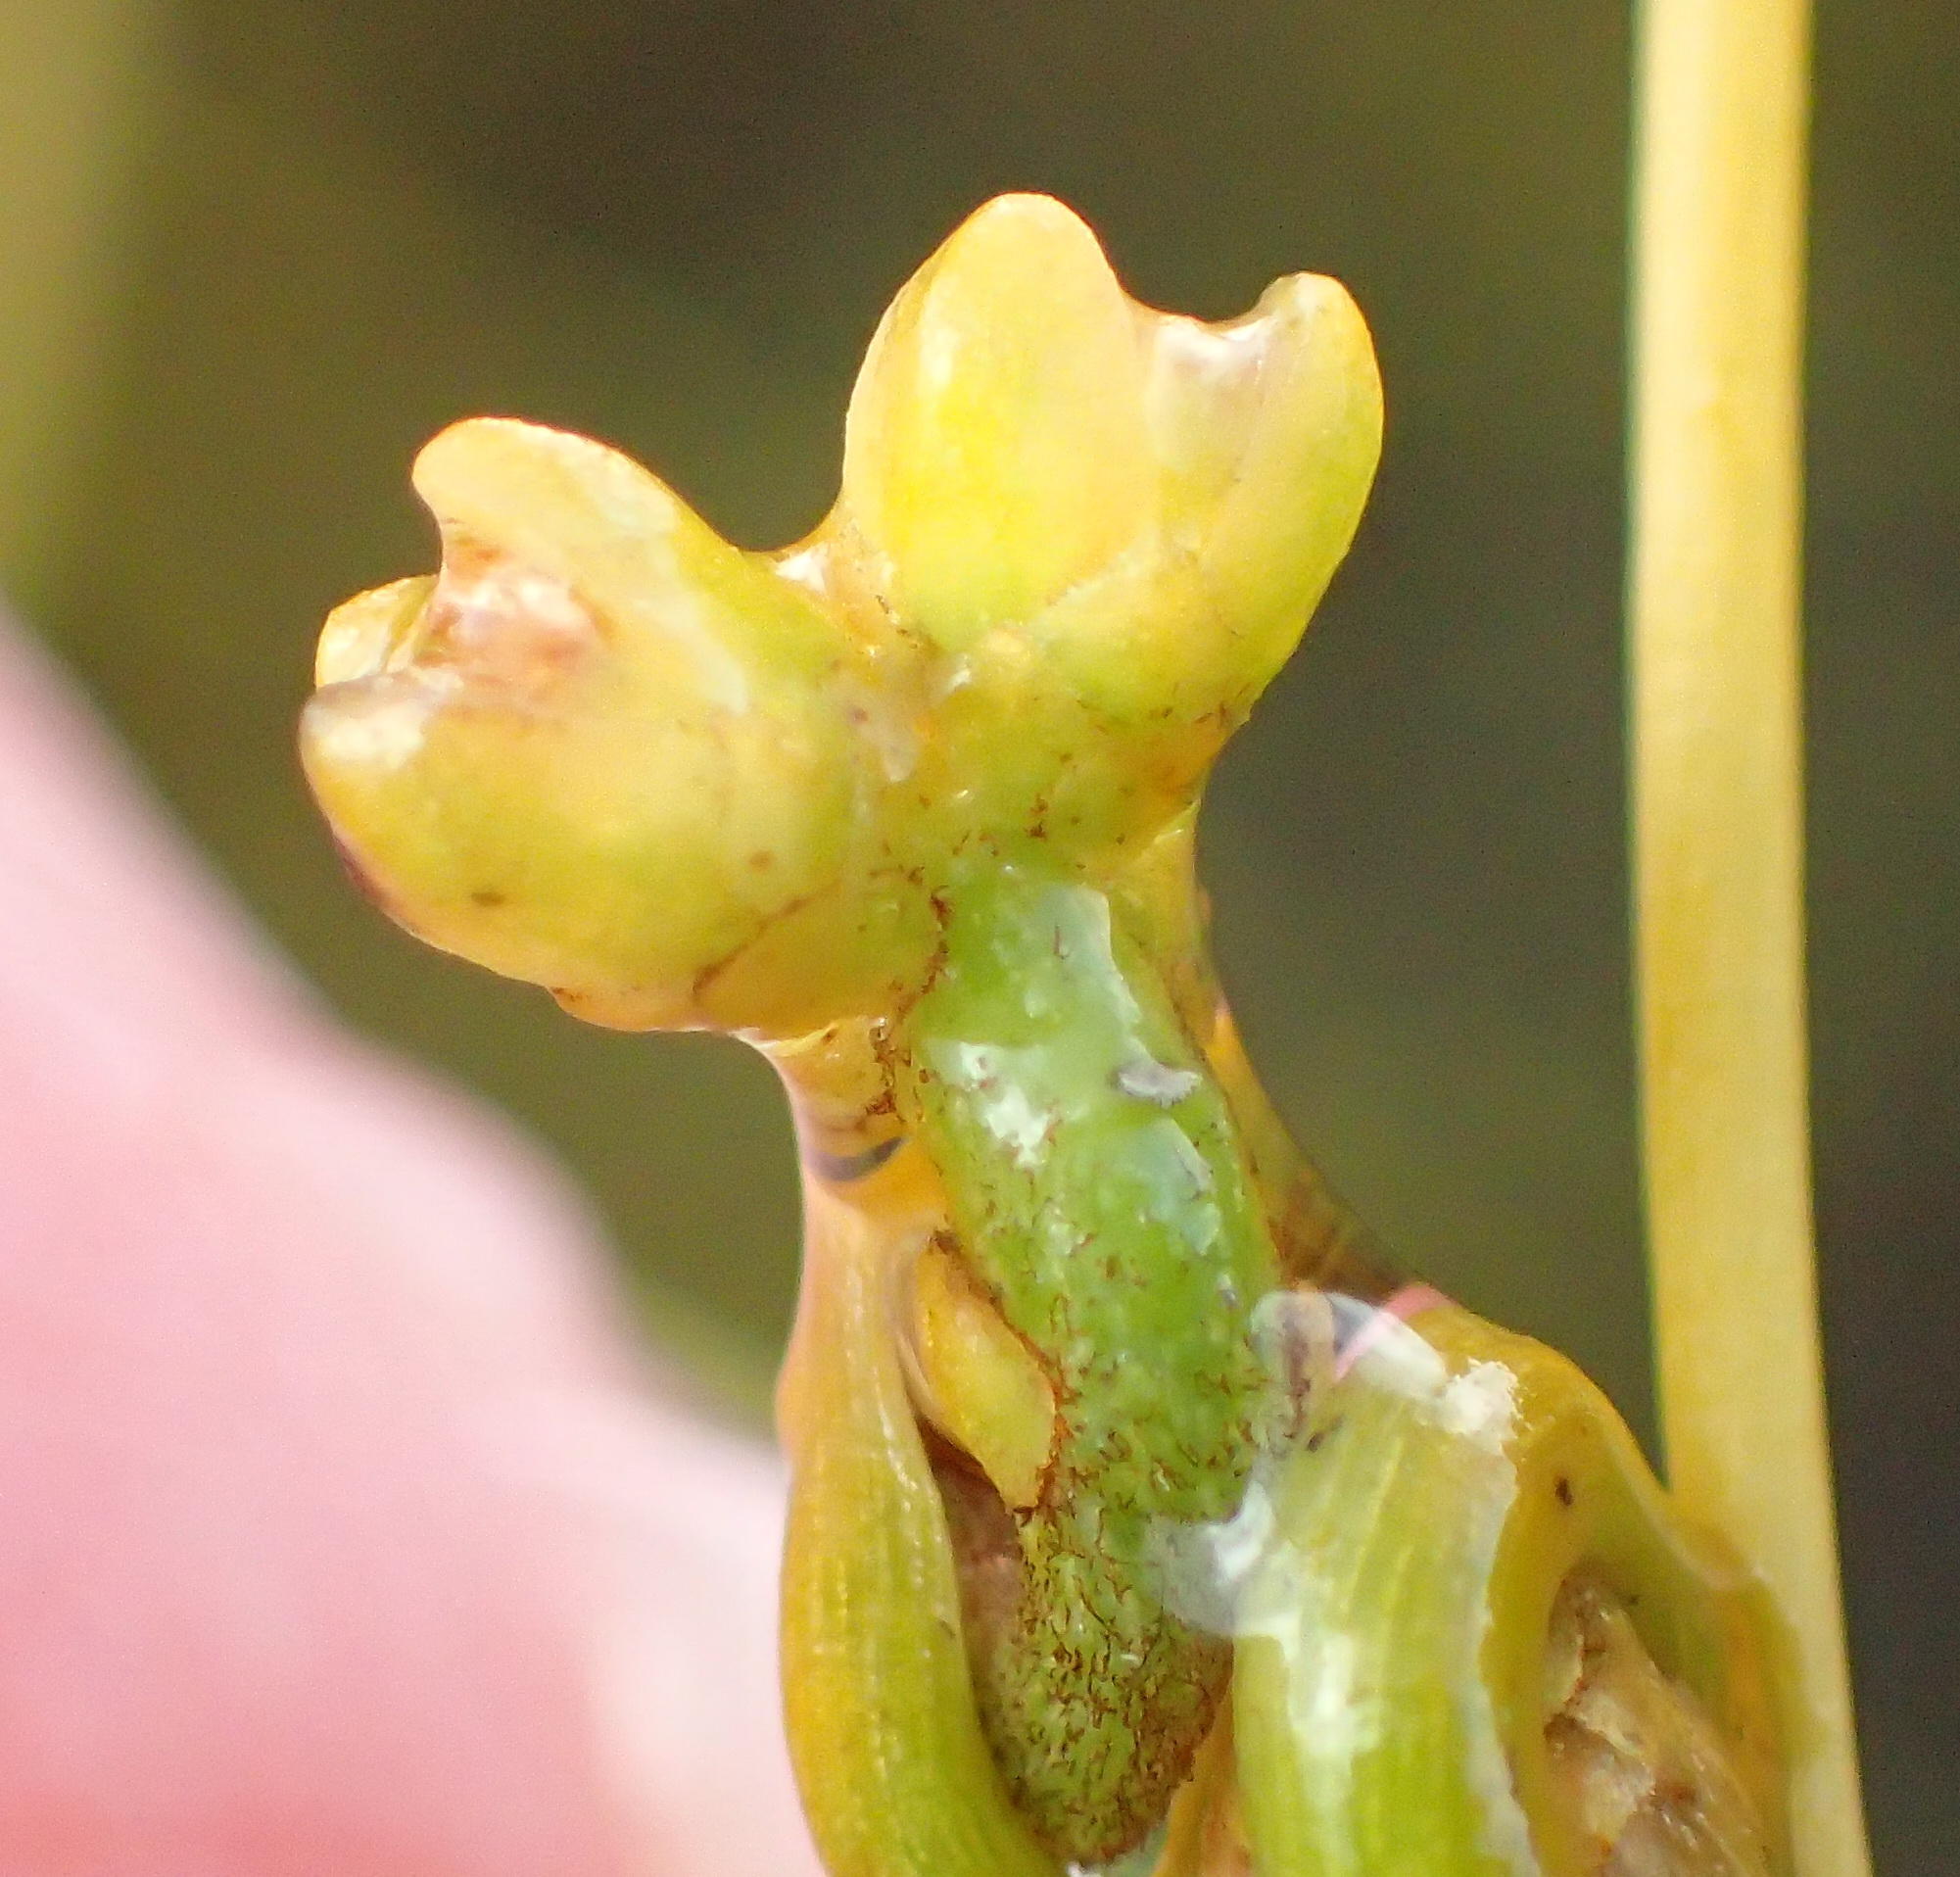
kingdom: Plantae
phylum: Tracheophyta
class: Magnoliopsida
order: Laurales
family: Lauraceae
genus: Cassytha
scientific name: Cassytha ciliolata
